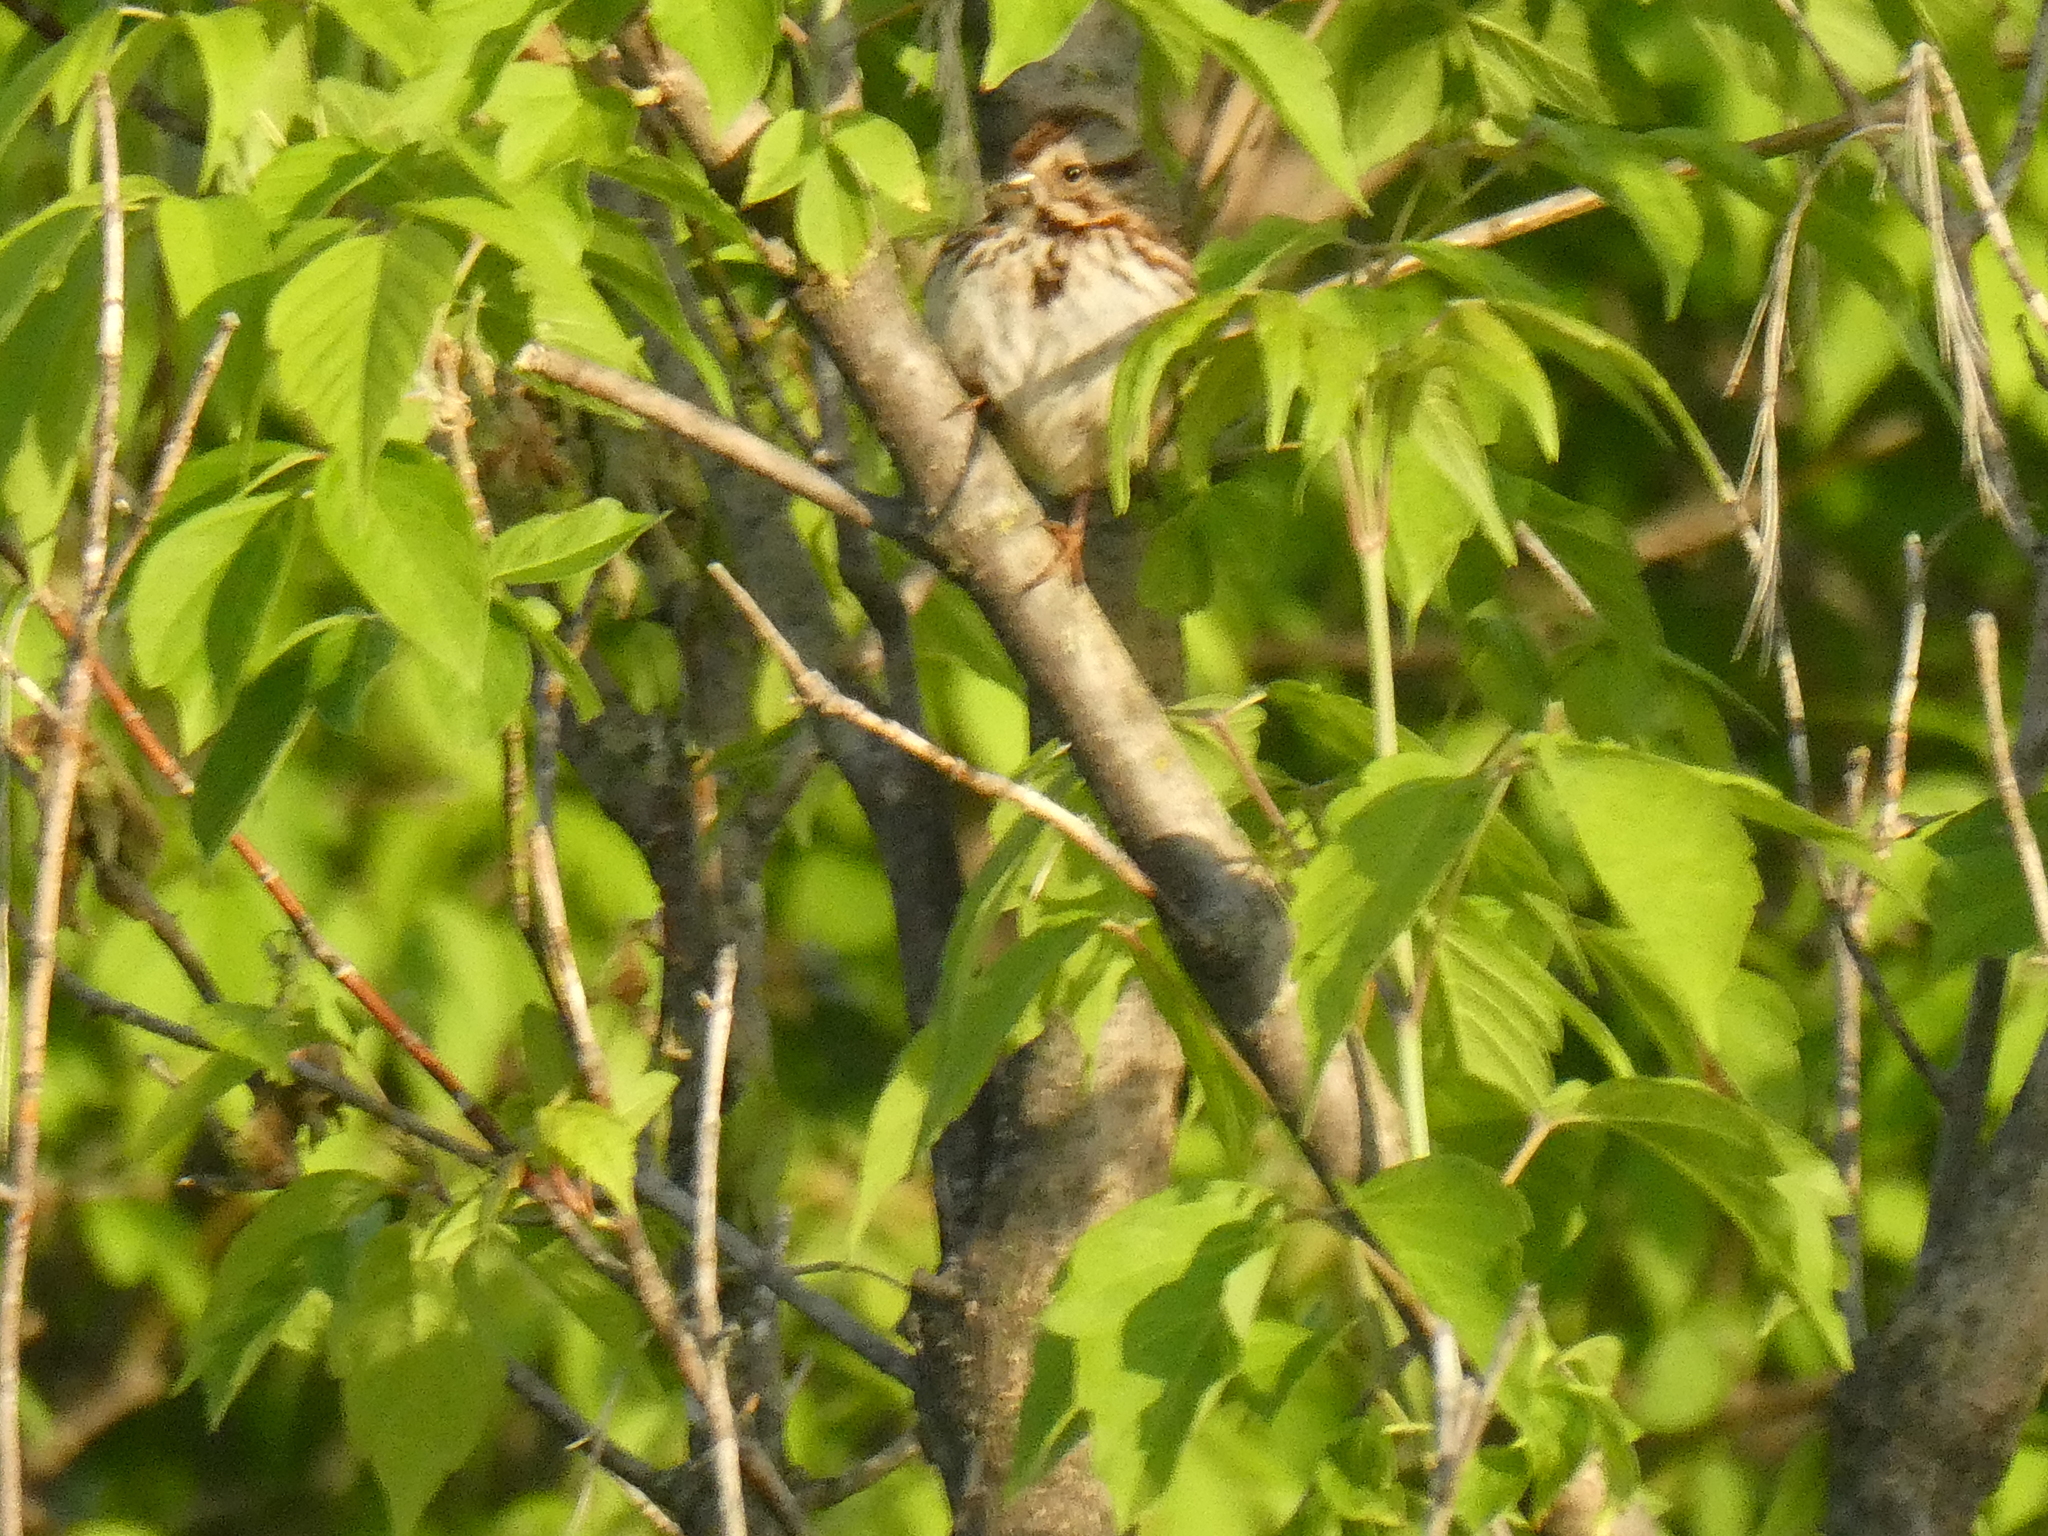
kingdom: Animalia
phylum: Chordata
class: Aves
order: Passeriformes
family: Passerellidae
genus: Melospiza
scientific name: Melospiza melodia
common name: Song sparrow
